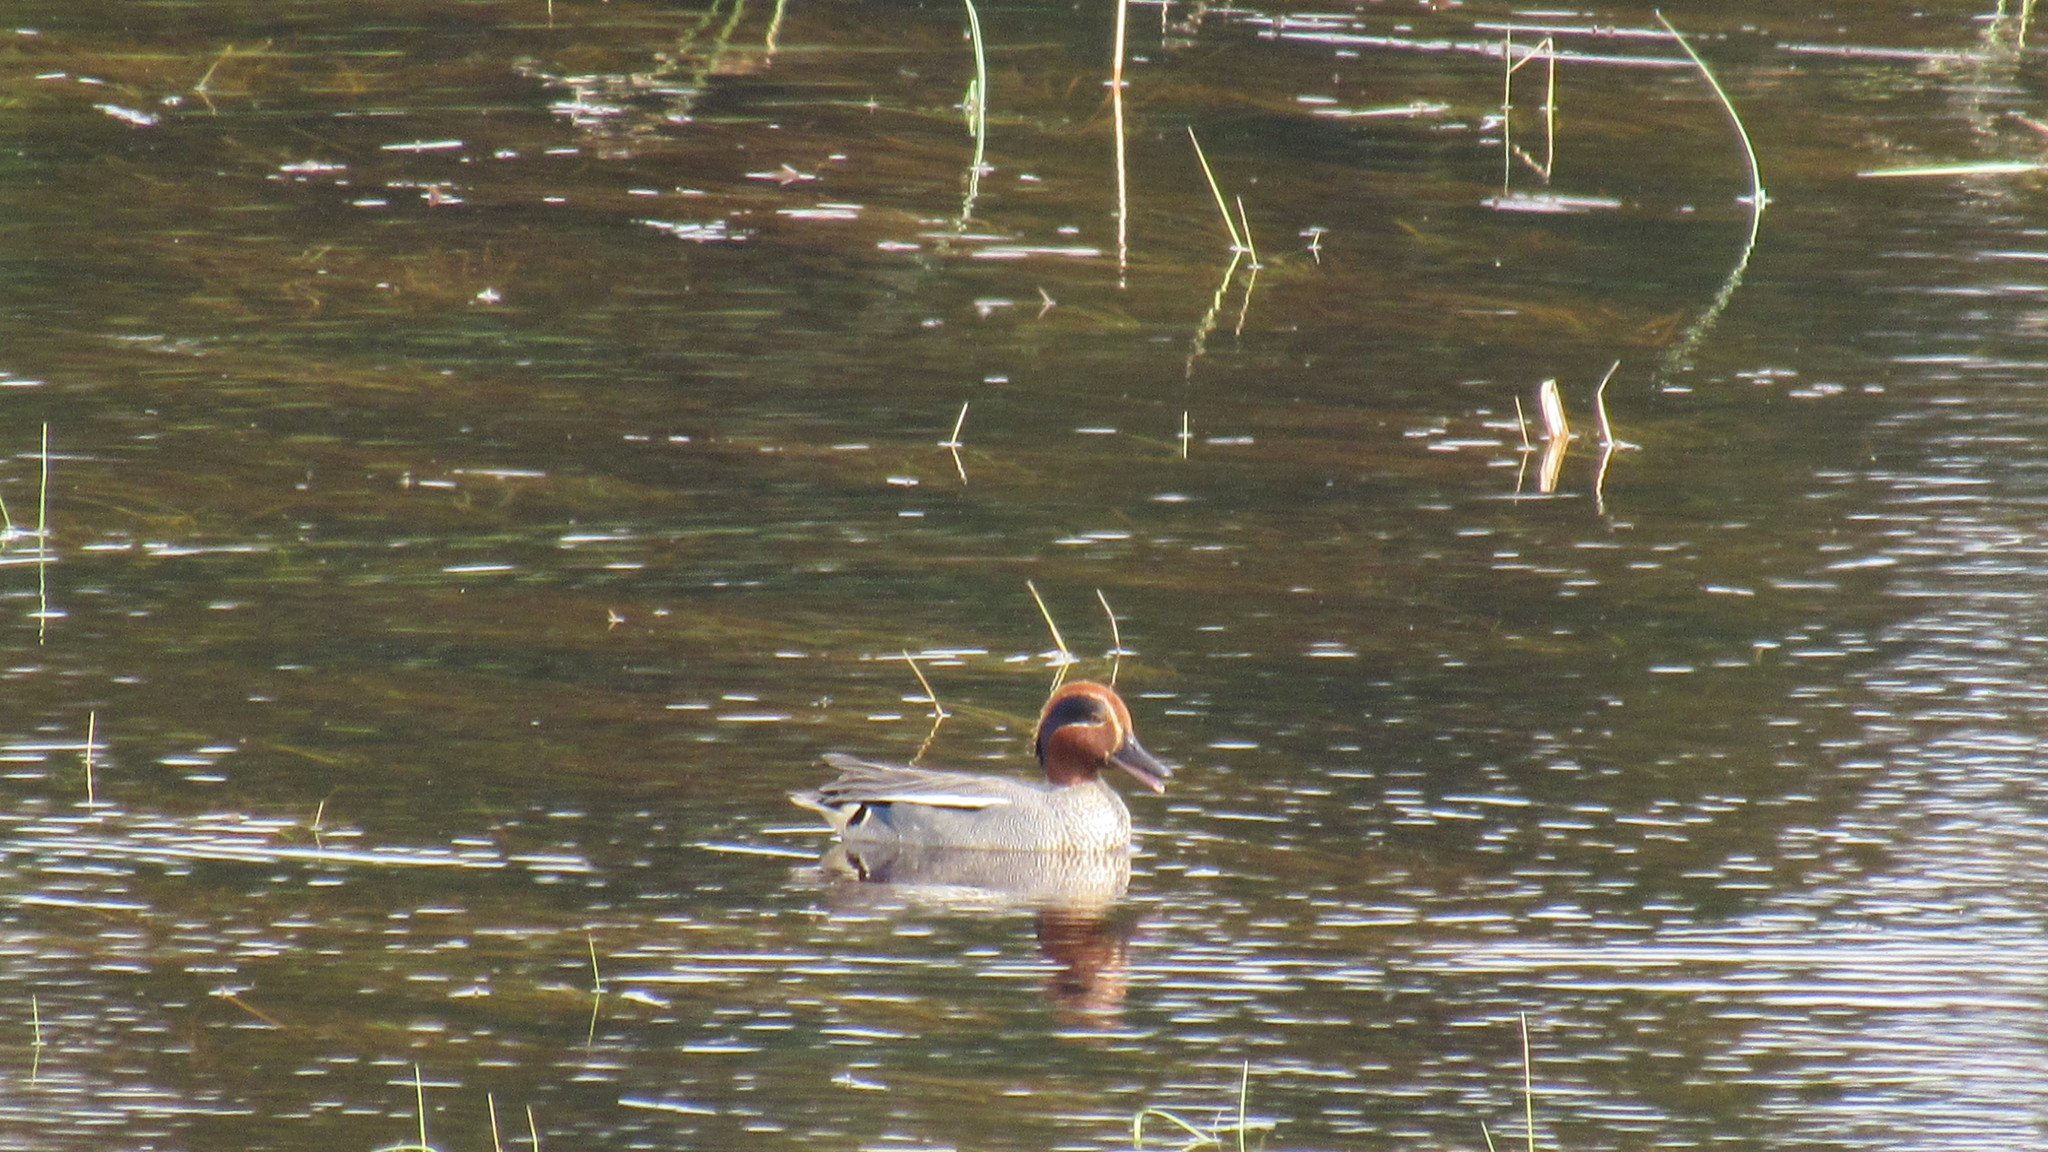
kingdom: Animalia
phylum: Chordata
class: Aves
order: Anseriformes
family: Anatidae
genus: Anas
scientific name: Anas crecca
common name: Eurasian teal
